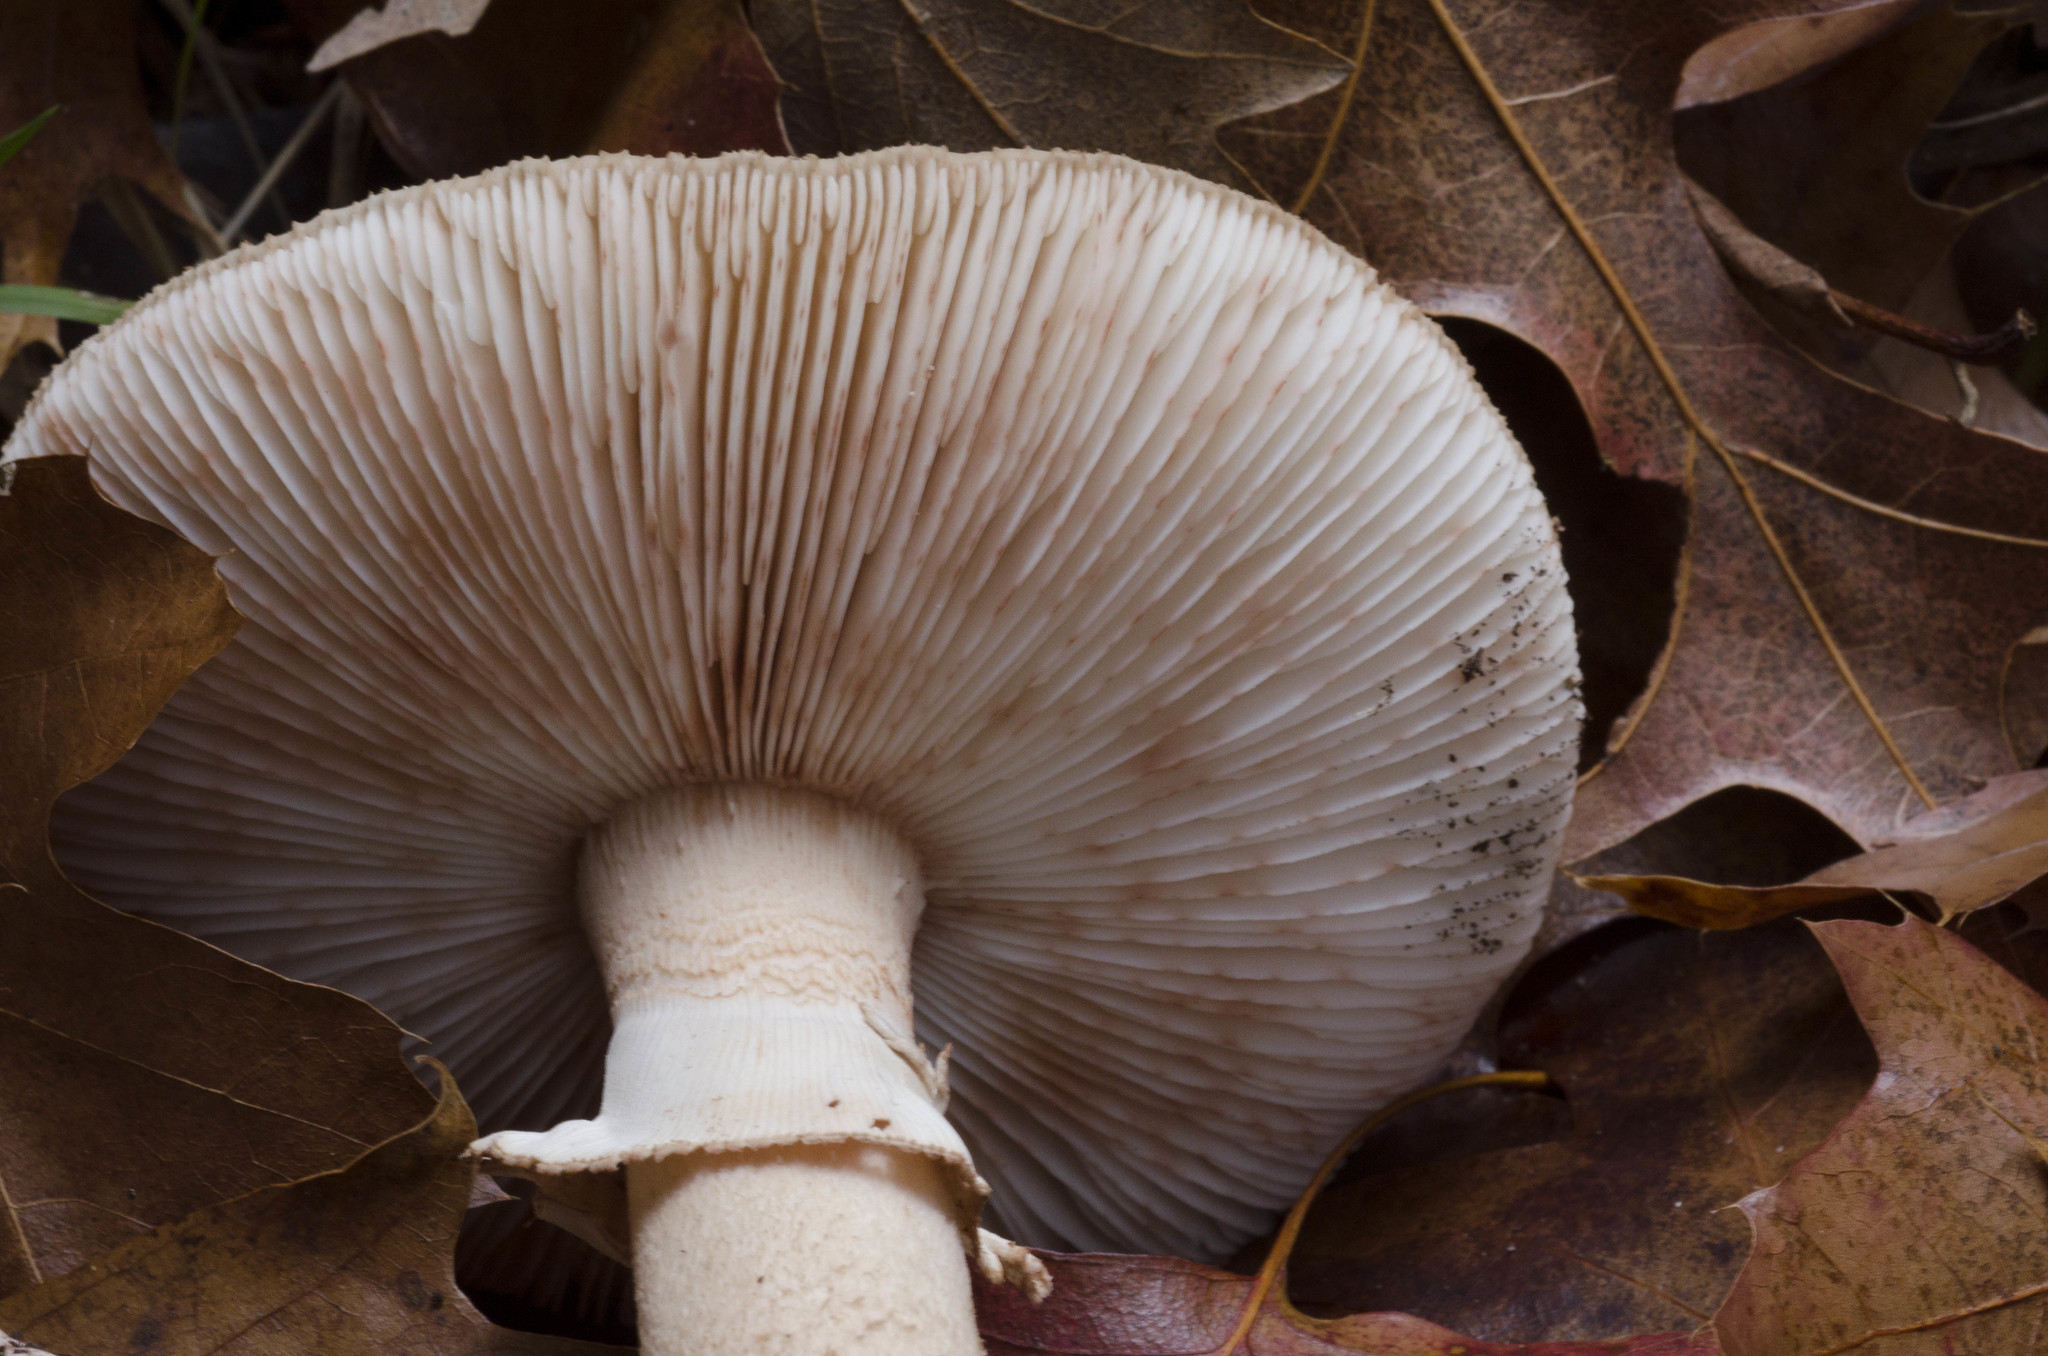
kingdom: Fungi
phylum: Basidiomycota
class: Agaricomycetes
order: Agaricales
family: Amanitaceae
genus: Amanita
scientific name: Amanita rubescens
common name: Blusher
